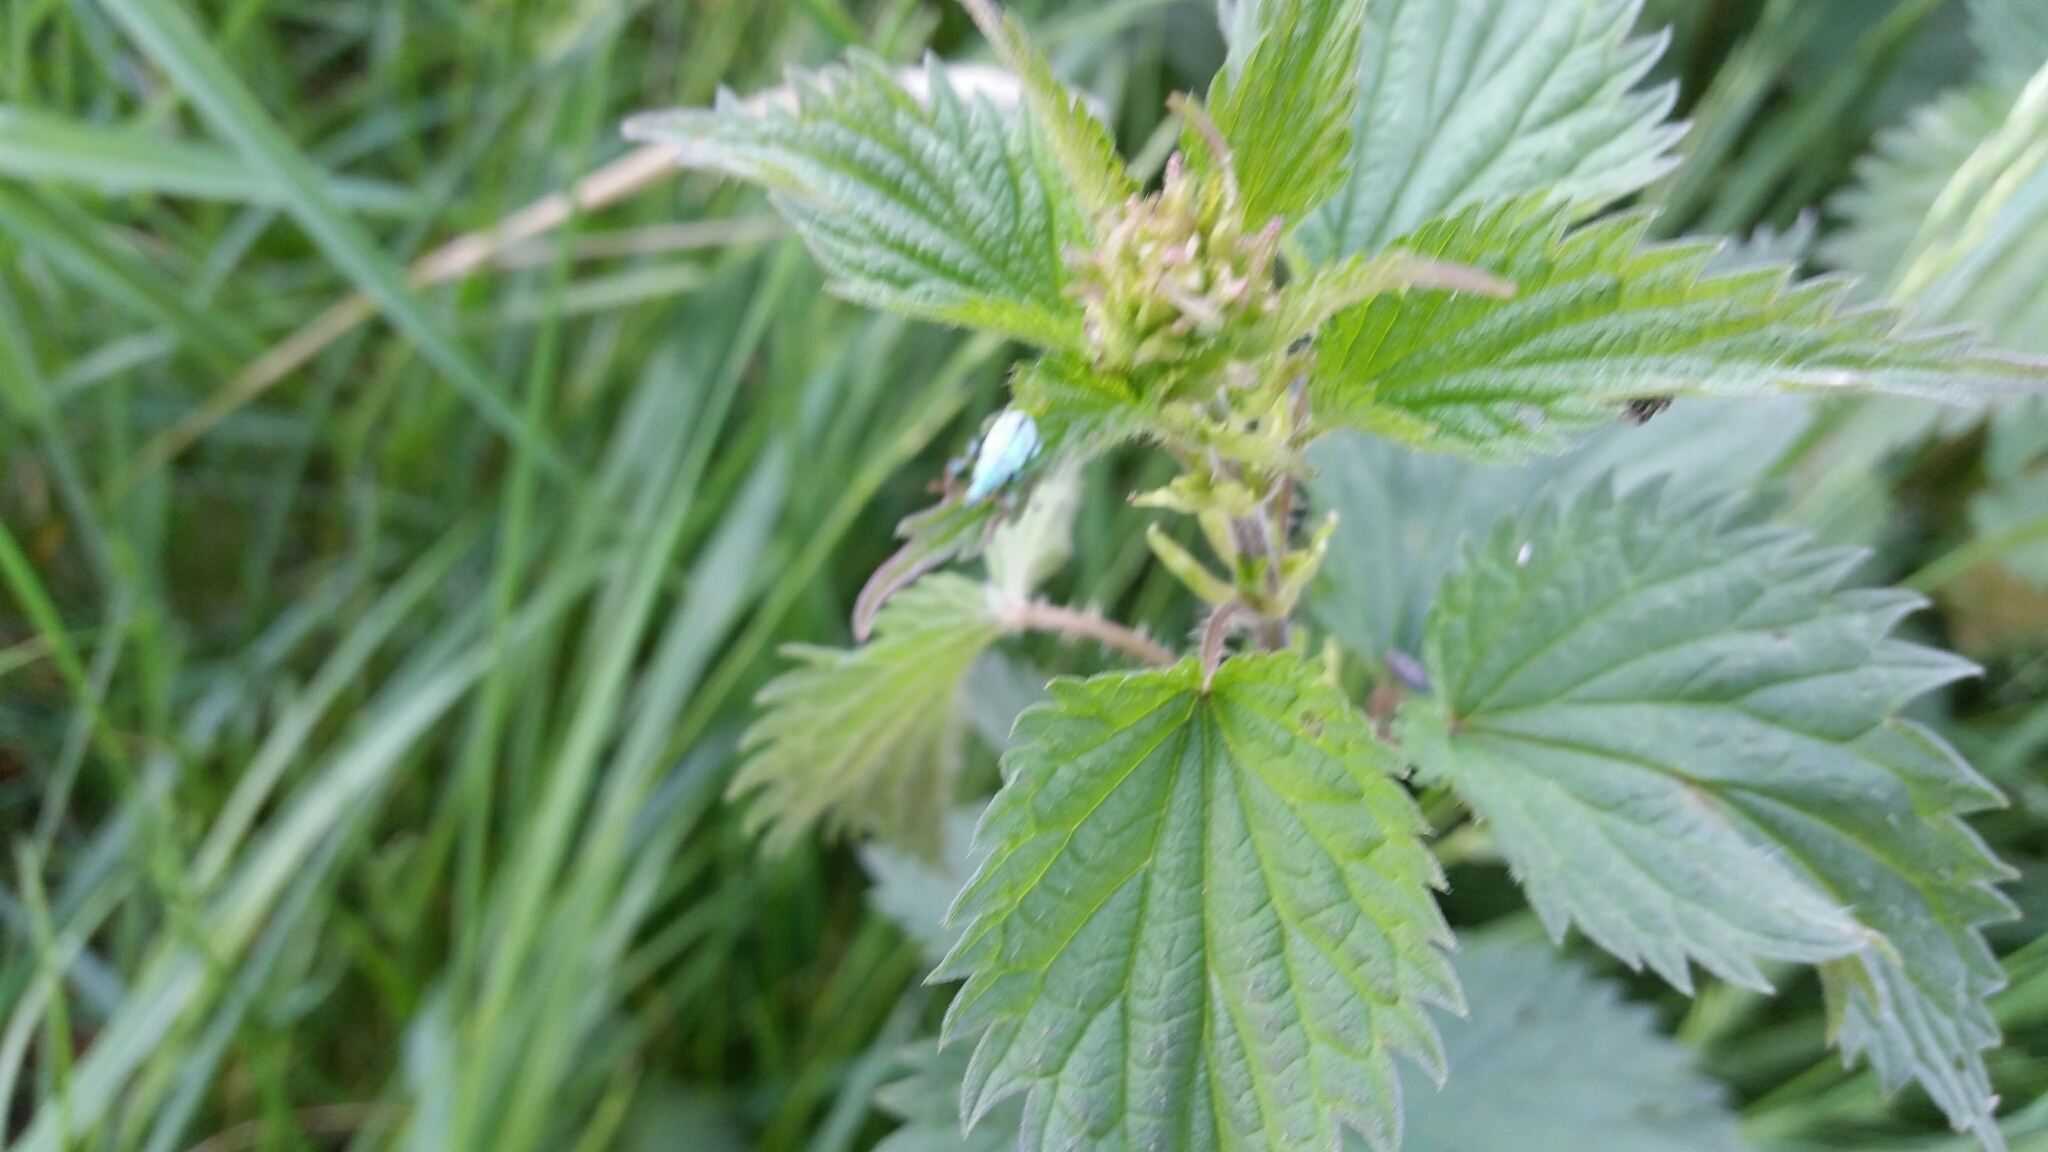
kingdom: Plantae
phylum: Tracheophyta
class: Magnoliopsida
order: Rosales
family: Urticaceae
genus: Urtica
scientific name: Urtica dioica
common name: Common nettle
